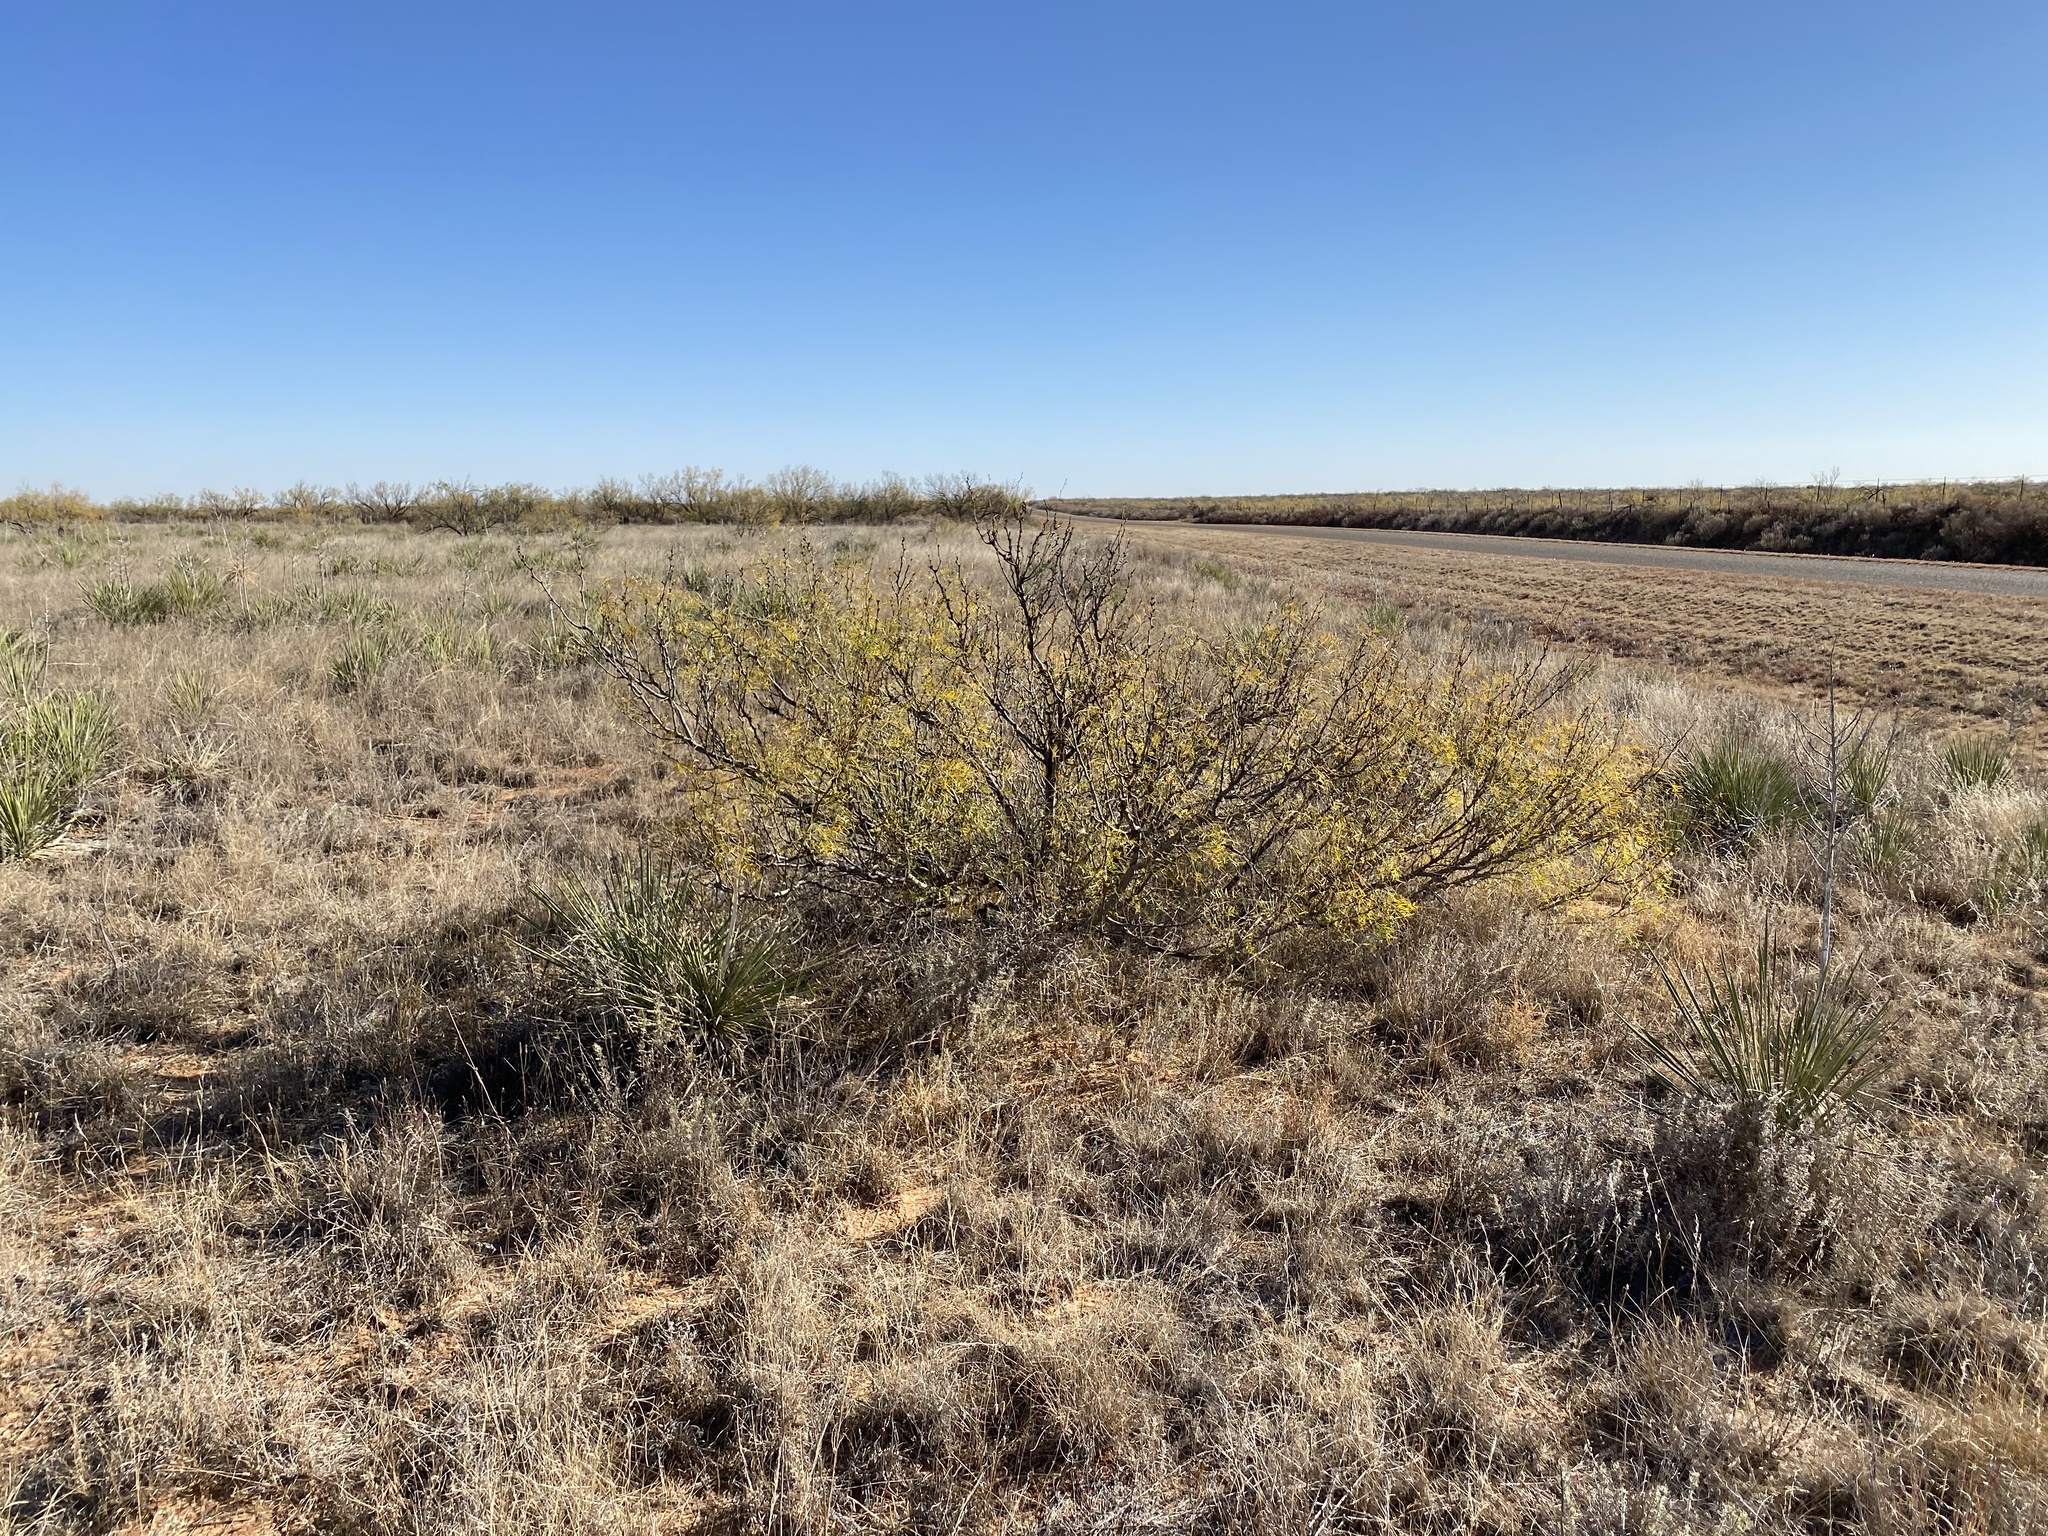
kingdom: Plantae
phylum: Tracheophyta
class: Magnoliopsida
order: Fabales
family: Fabaceae
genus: Prosopis
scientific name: Prosopis glandulosa
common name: Honey mesquite
